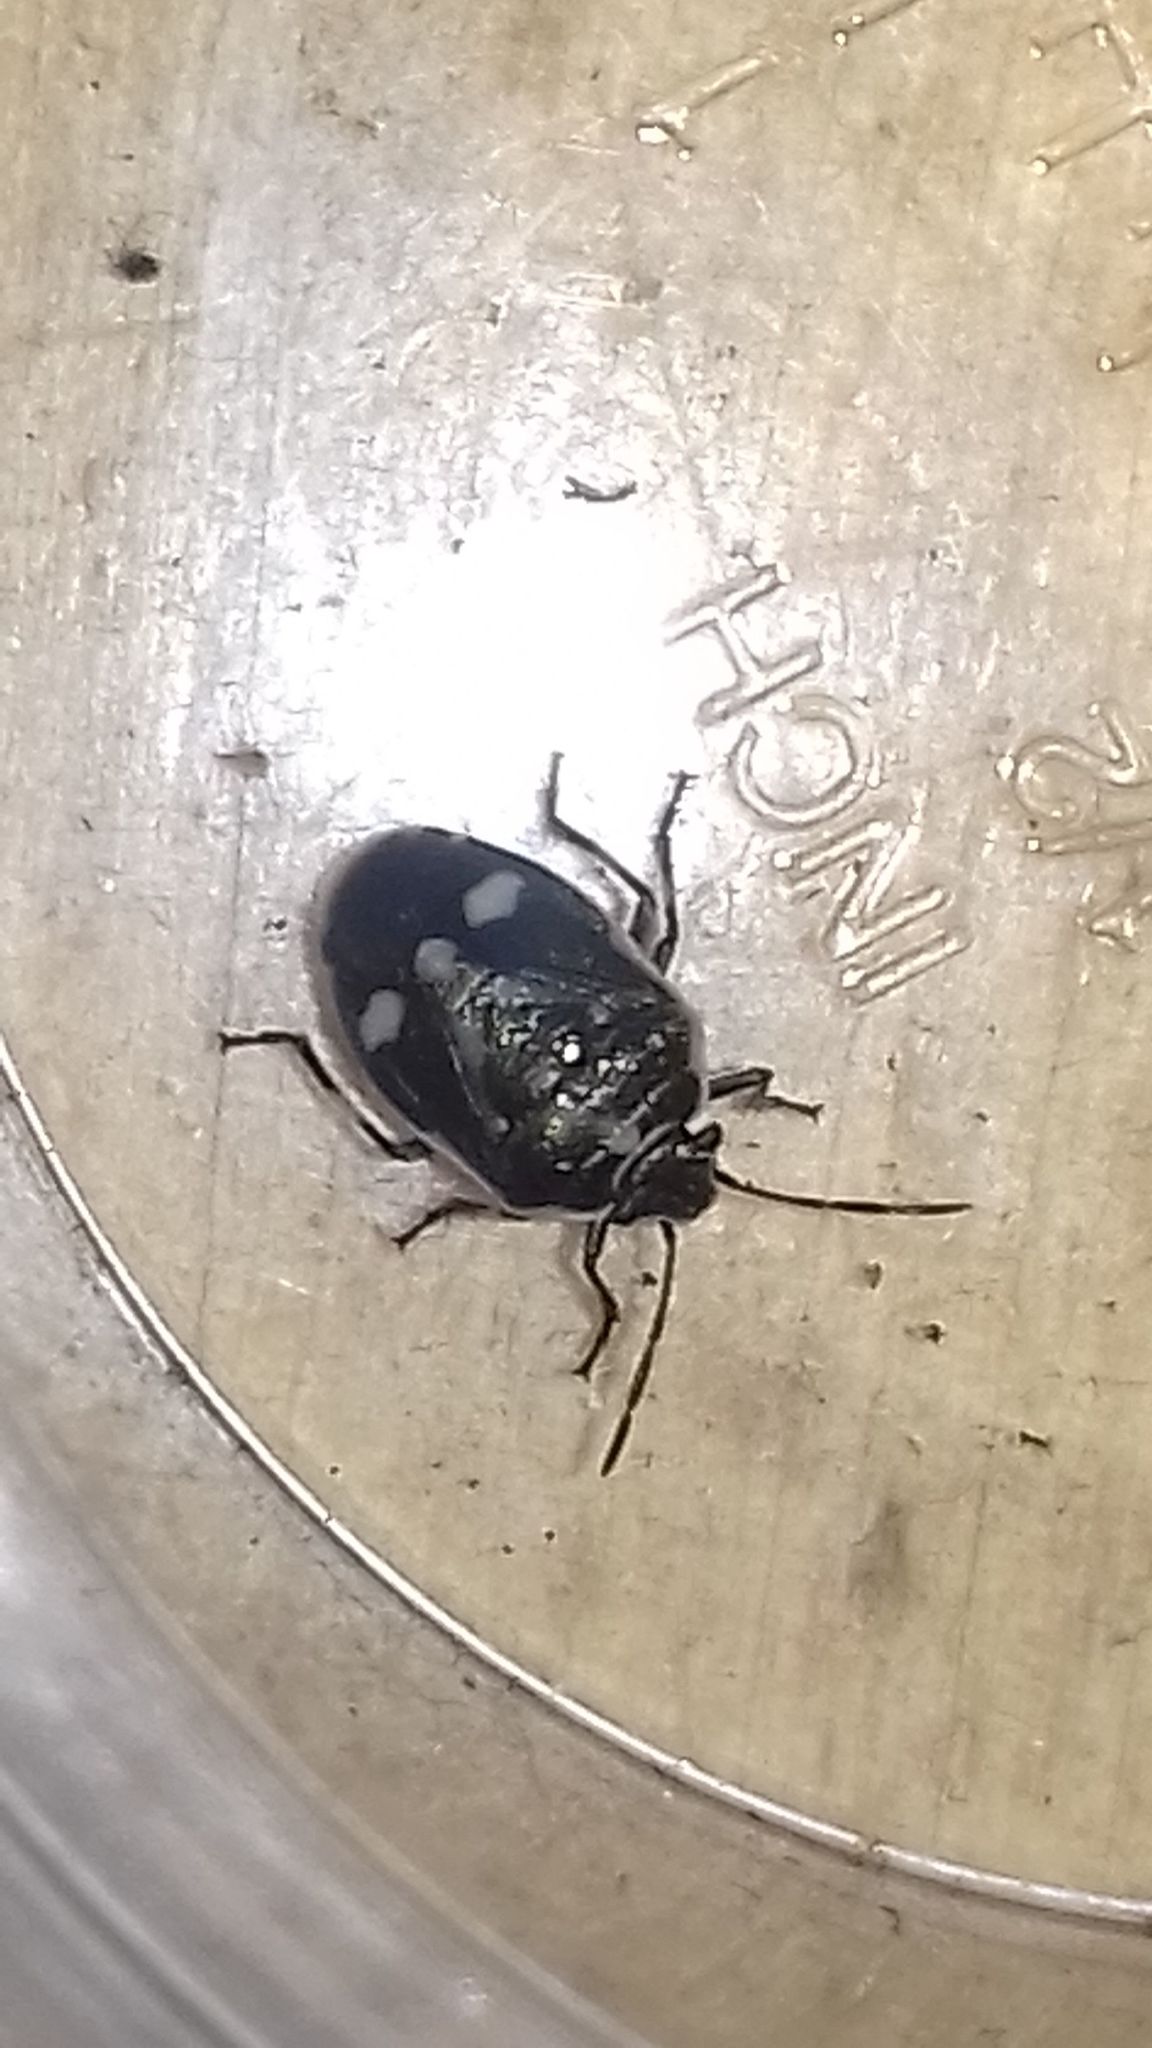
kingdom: Animalia
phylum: Arthropoda
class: Insecta
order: Hemiptera
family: Pentatomidae
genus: Eurydema
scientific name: Eurydema oleracea
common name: Cabbage bug
